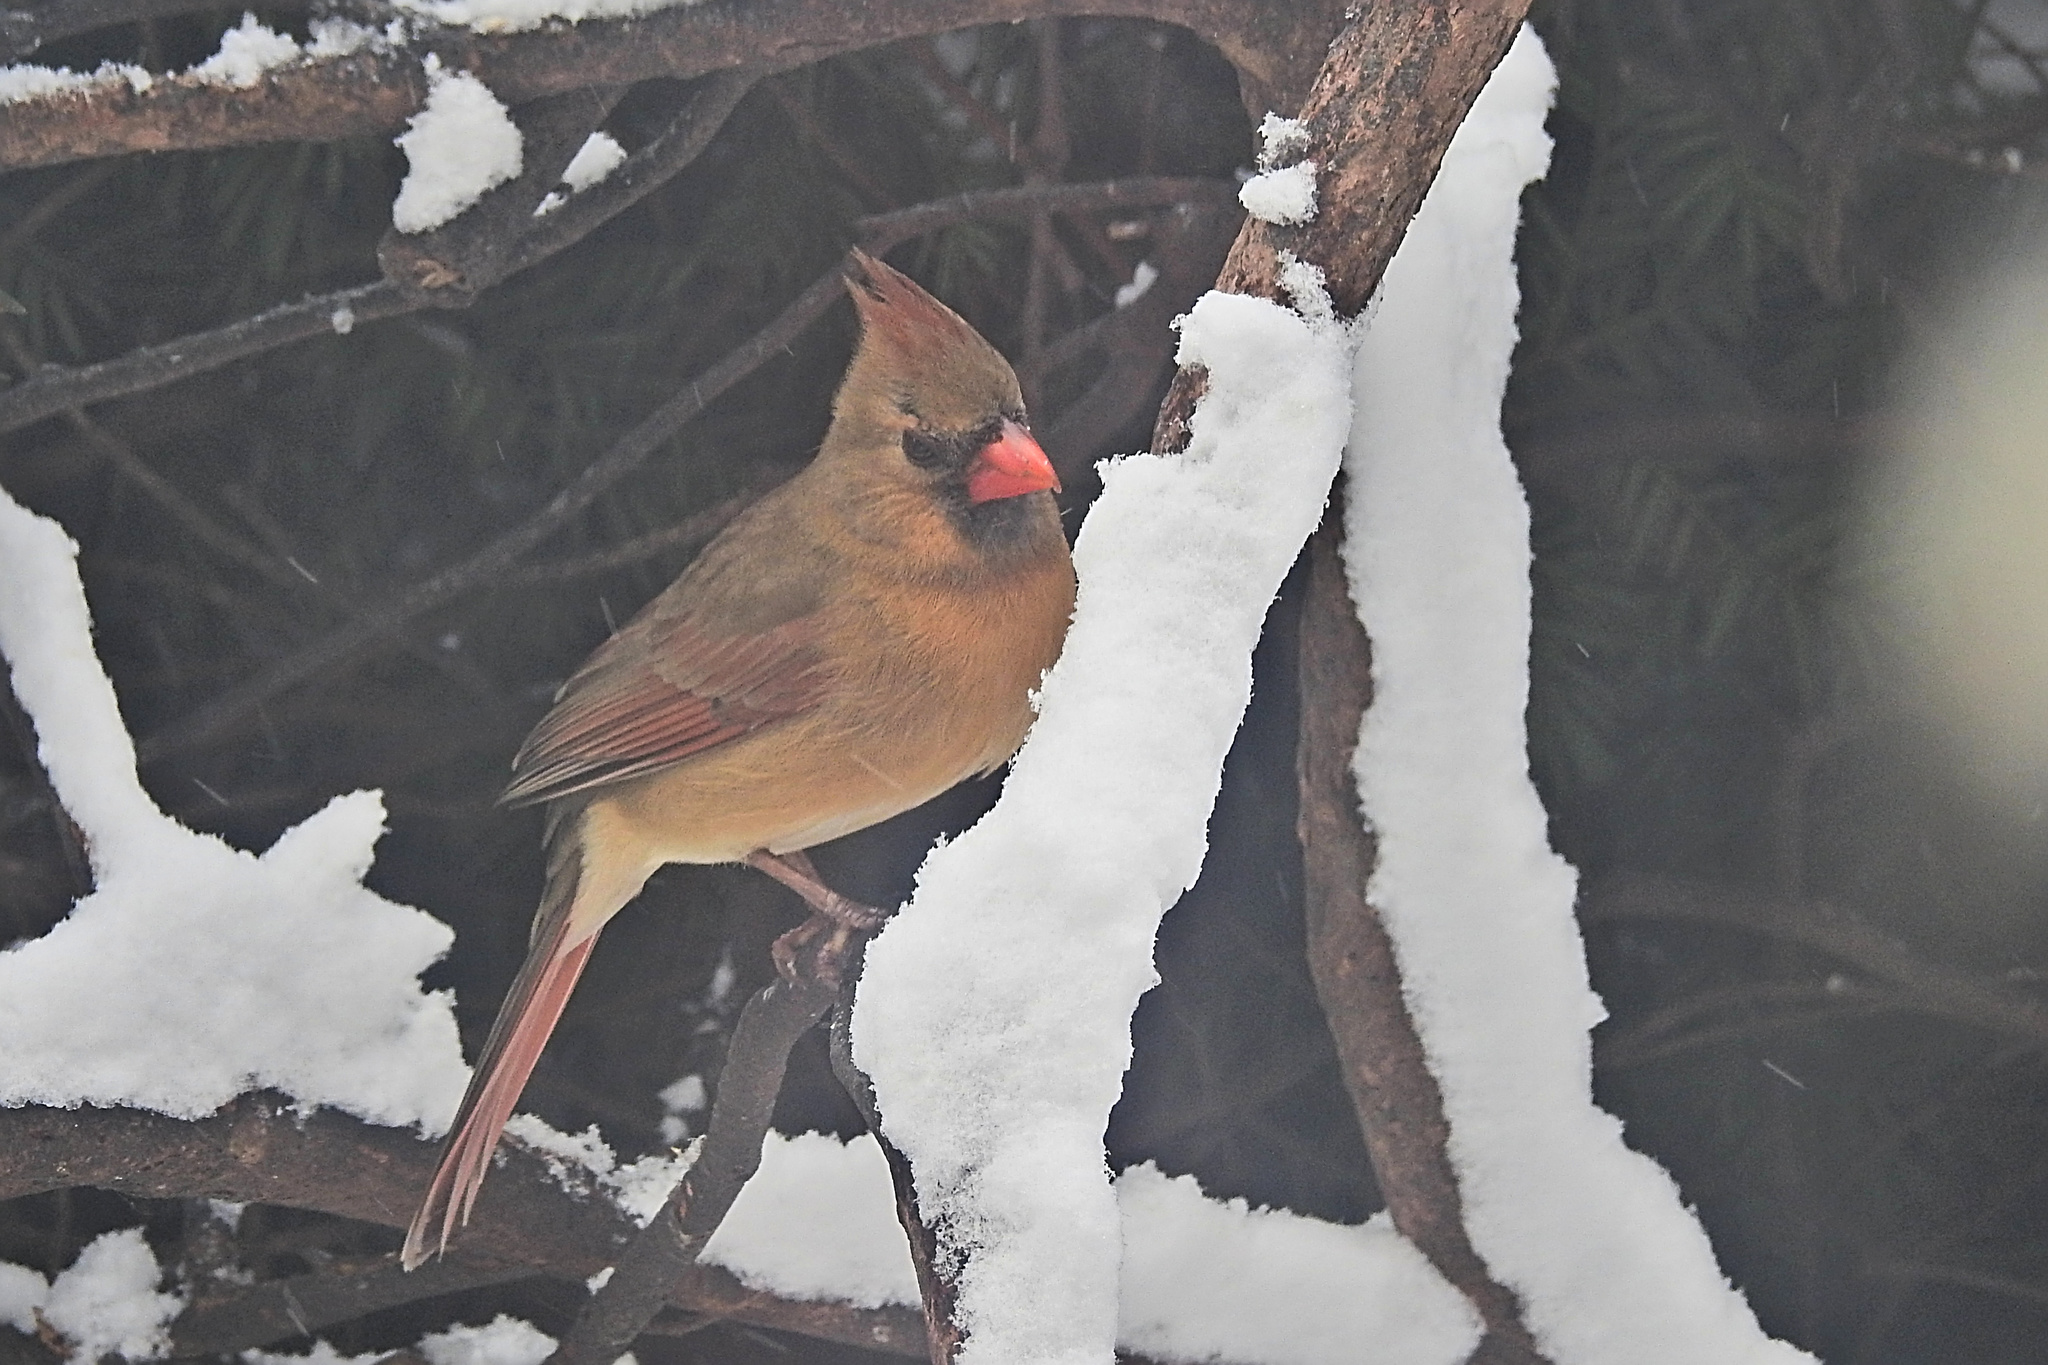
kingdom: Animalia
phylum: Chordata
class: Aves
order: Passeriformes
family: Cardinalidae
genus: Cardinalis
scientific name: Cardinalis cardinalis
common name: Northern cardinal
